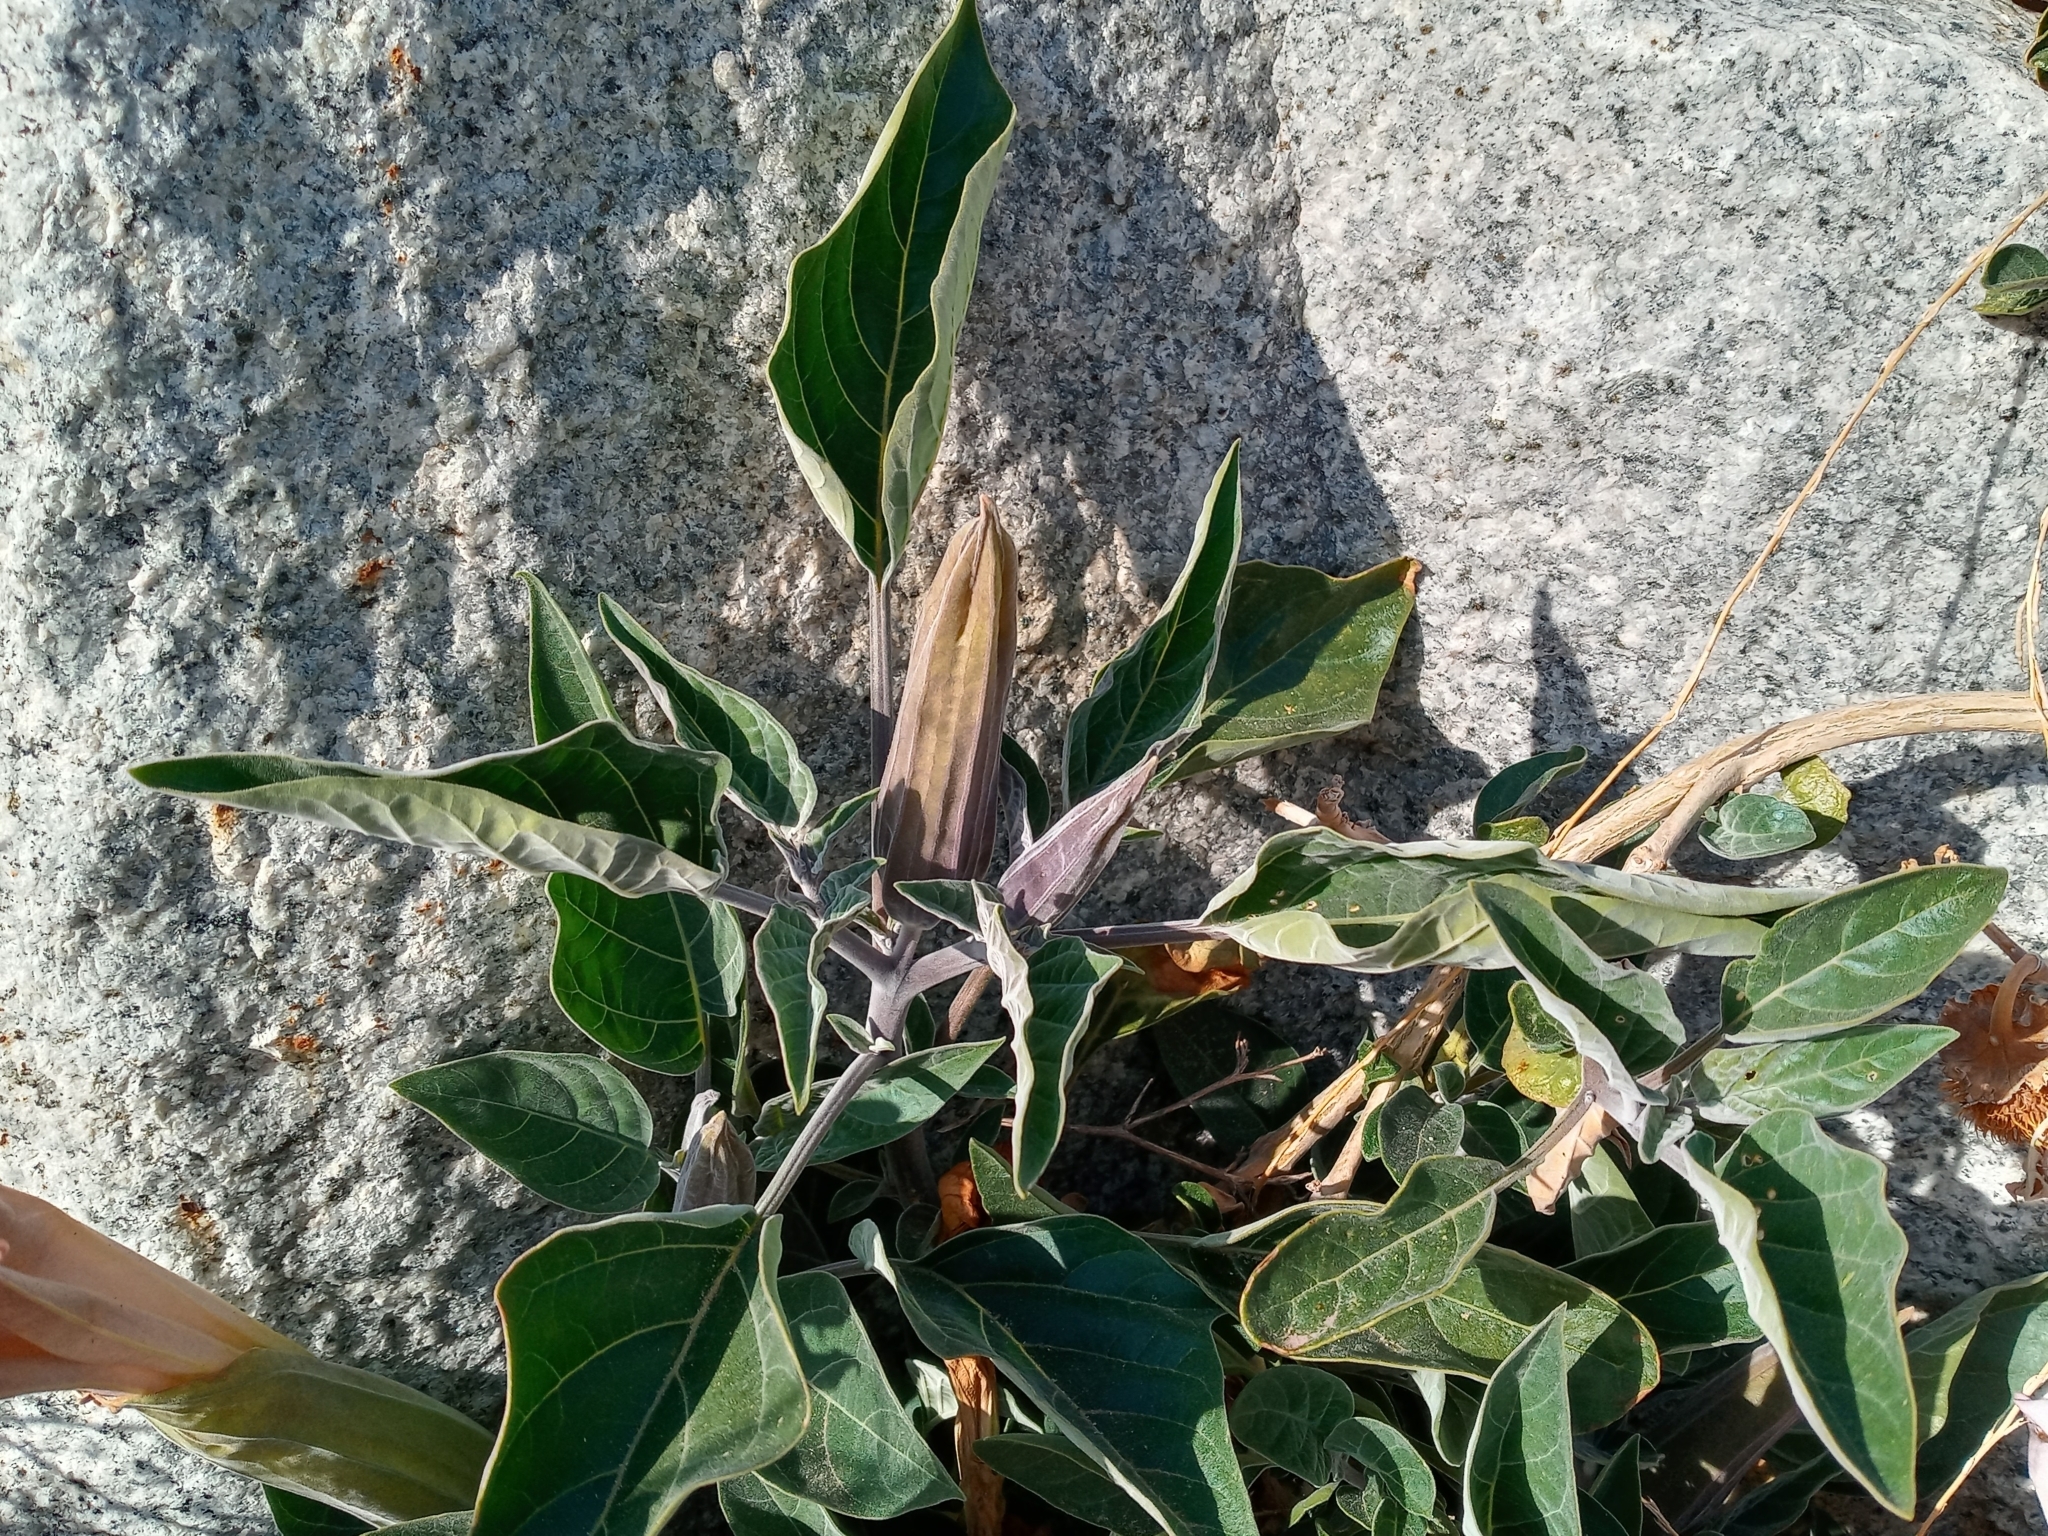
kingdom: Plantae
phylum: Tracheophyta
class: Magnoliopsida
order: Solanales
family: Solanaceae
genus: Datura
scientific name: Datura wrightii
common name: Sacred thorn-apple
